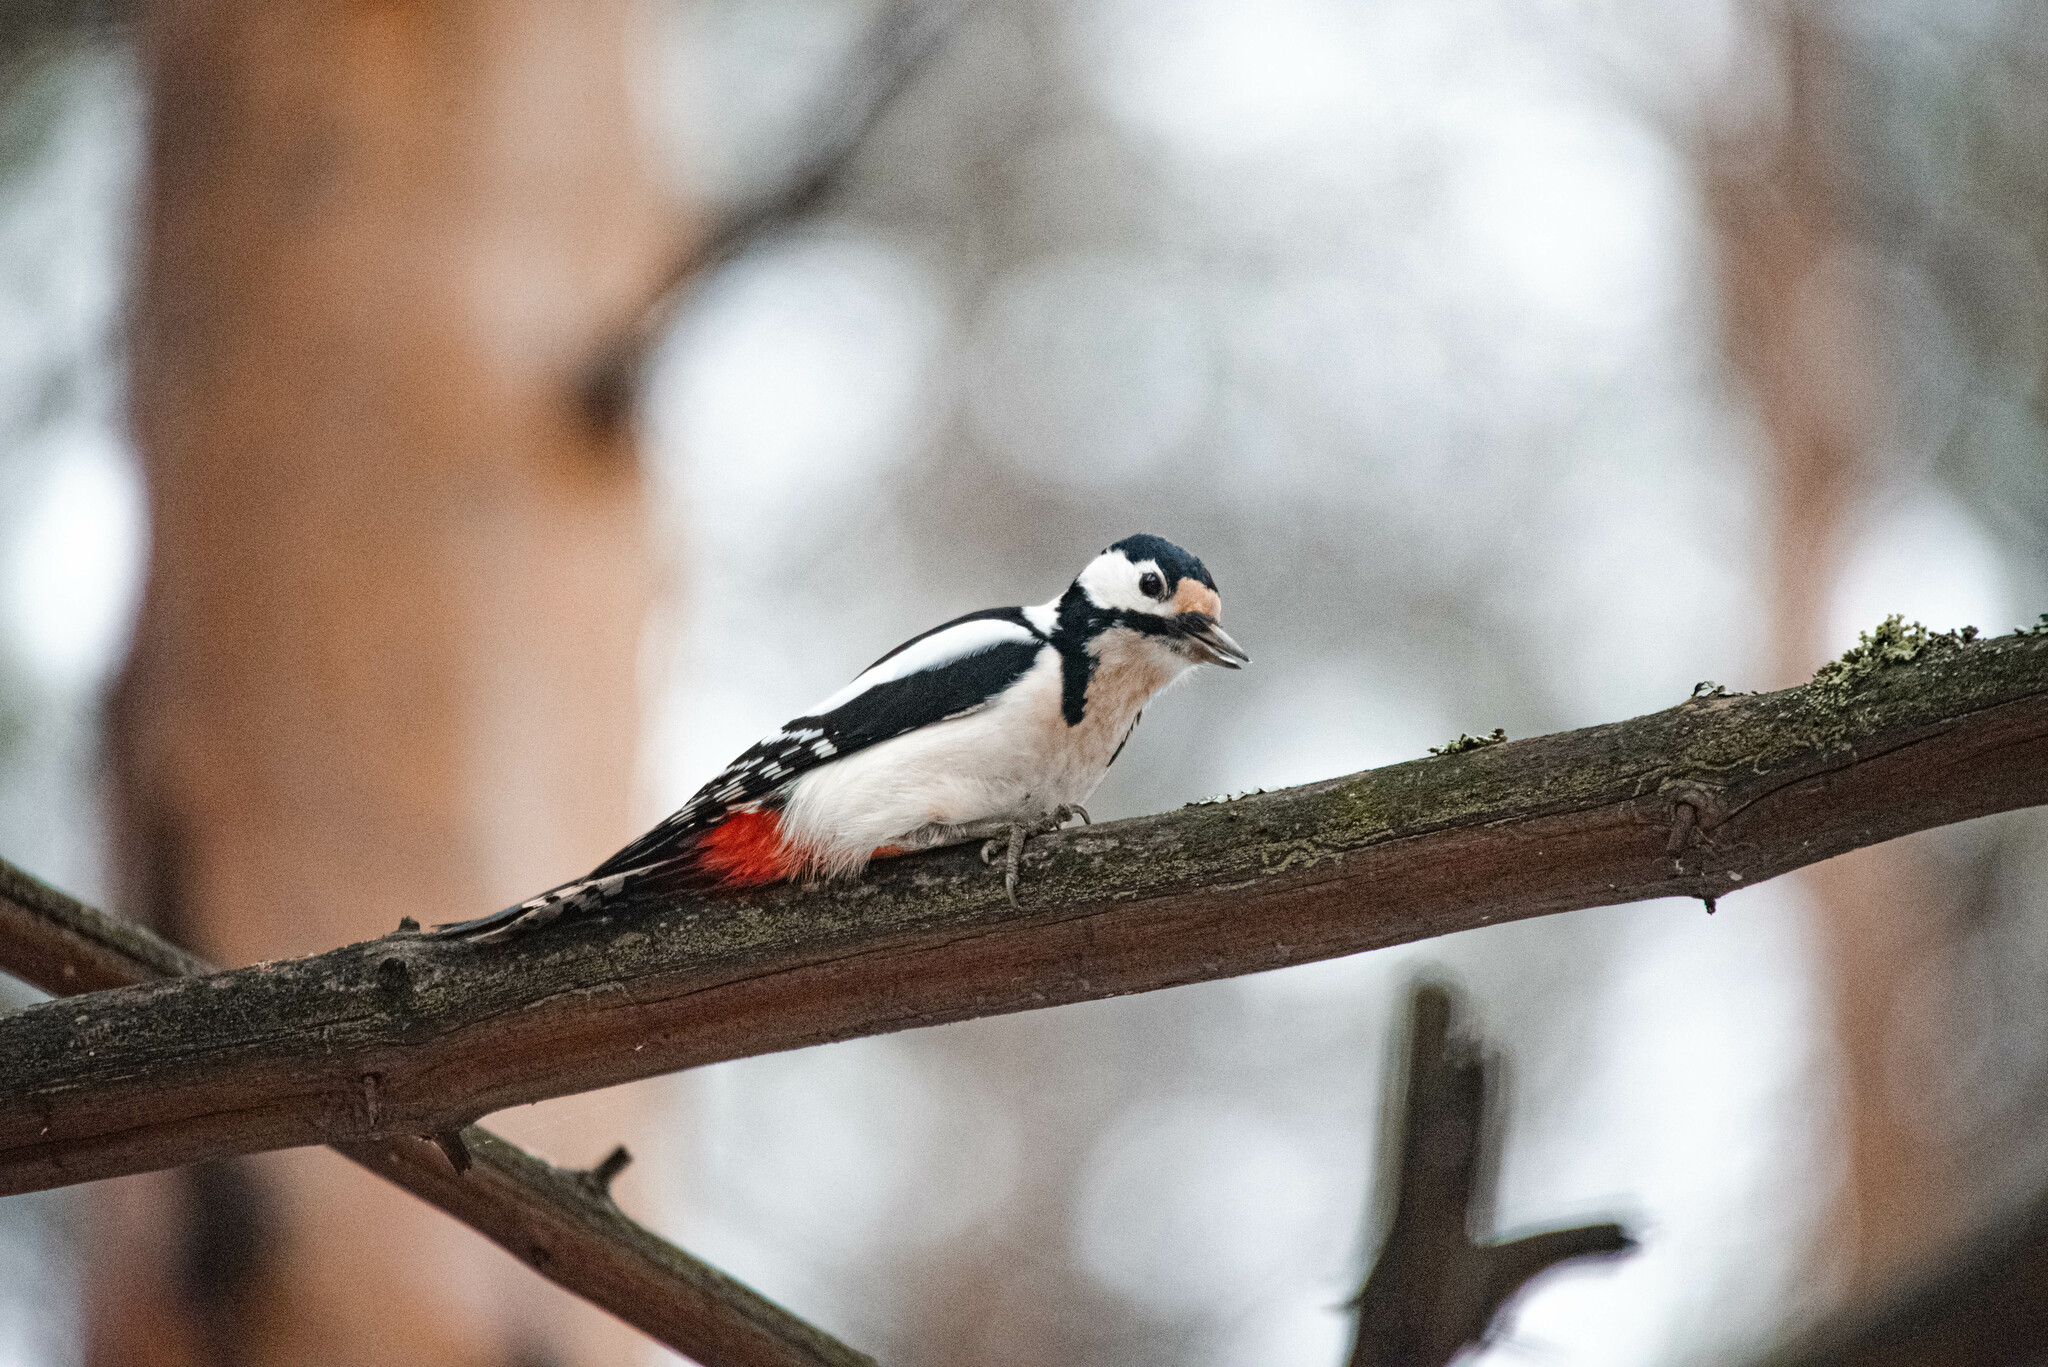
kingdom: Animalia
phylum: Chordata
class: Aves
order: Piciformes
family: Picidae
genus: Dendrocopos
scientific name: Dendrocopos major
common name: Great spotted woodpecker
